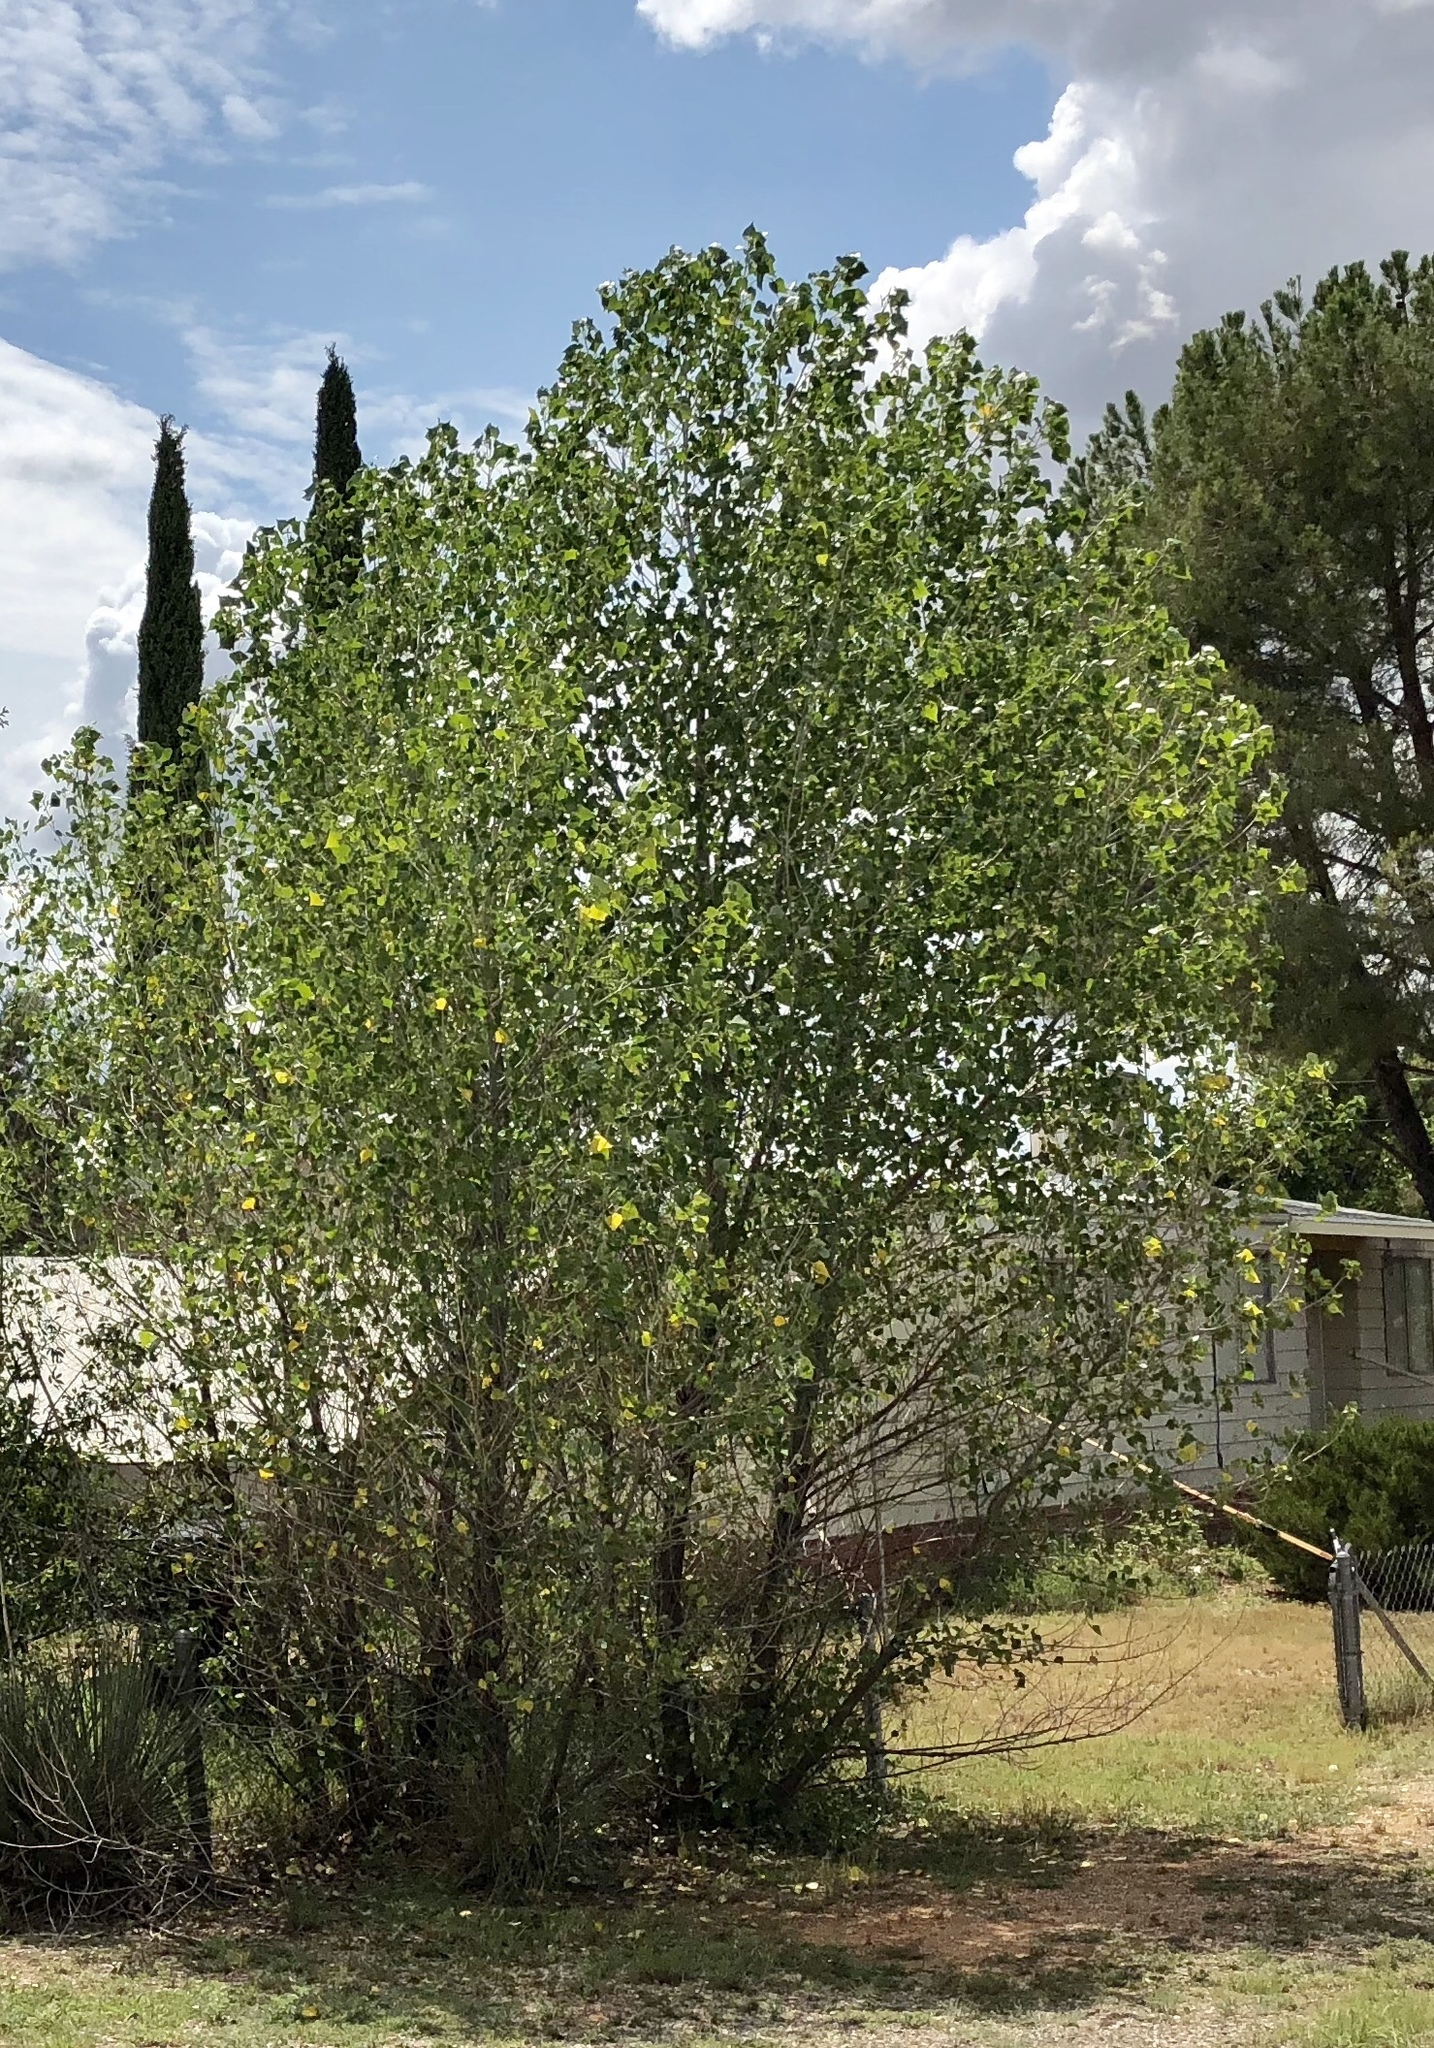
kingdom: Plantae
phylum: Tracheophyta
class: Magnoliopsida
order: Malpighiales
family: Salicaceae
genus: Populus
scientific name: Populus fremontii
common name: Fremont's cottonwood
